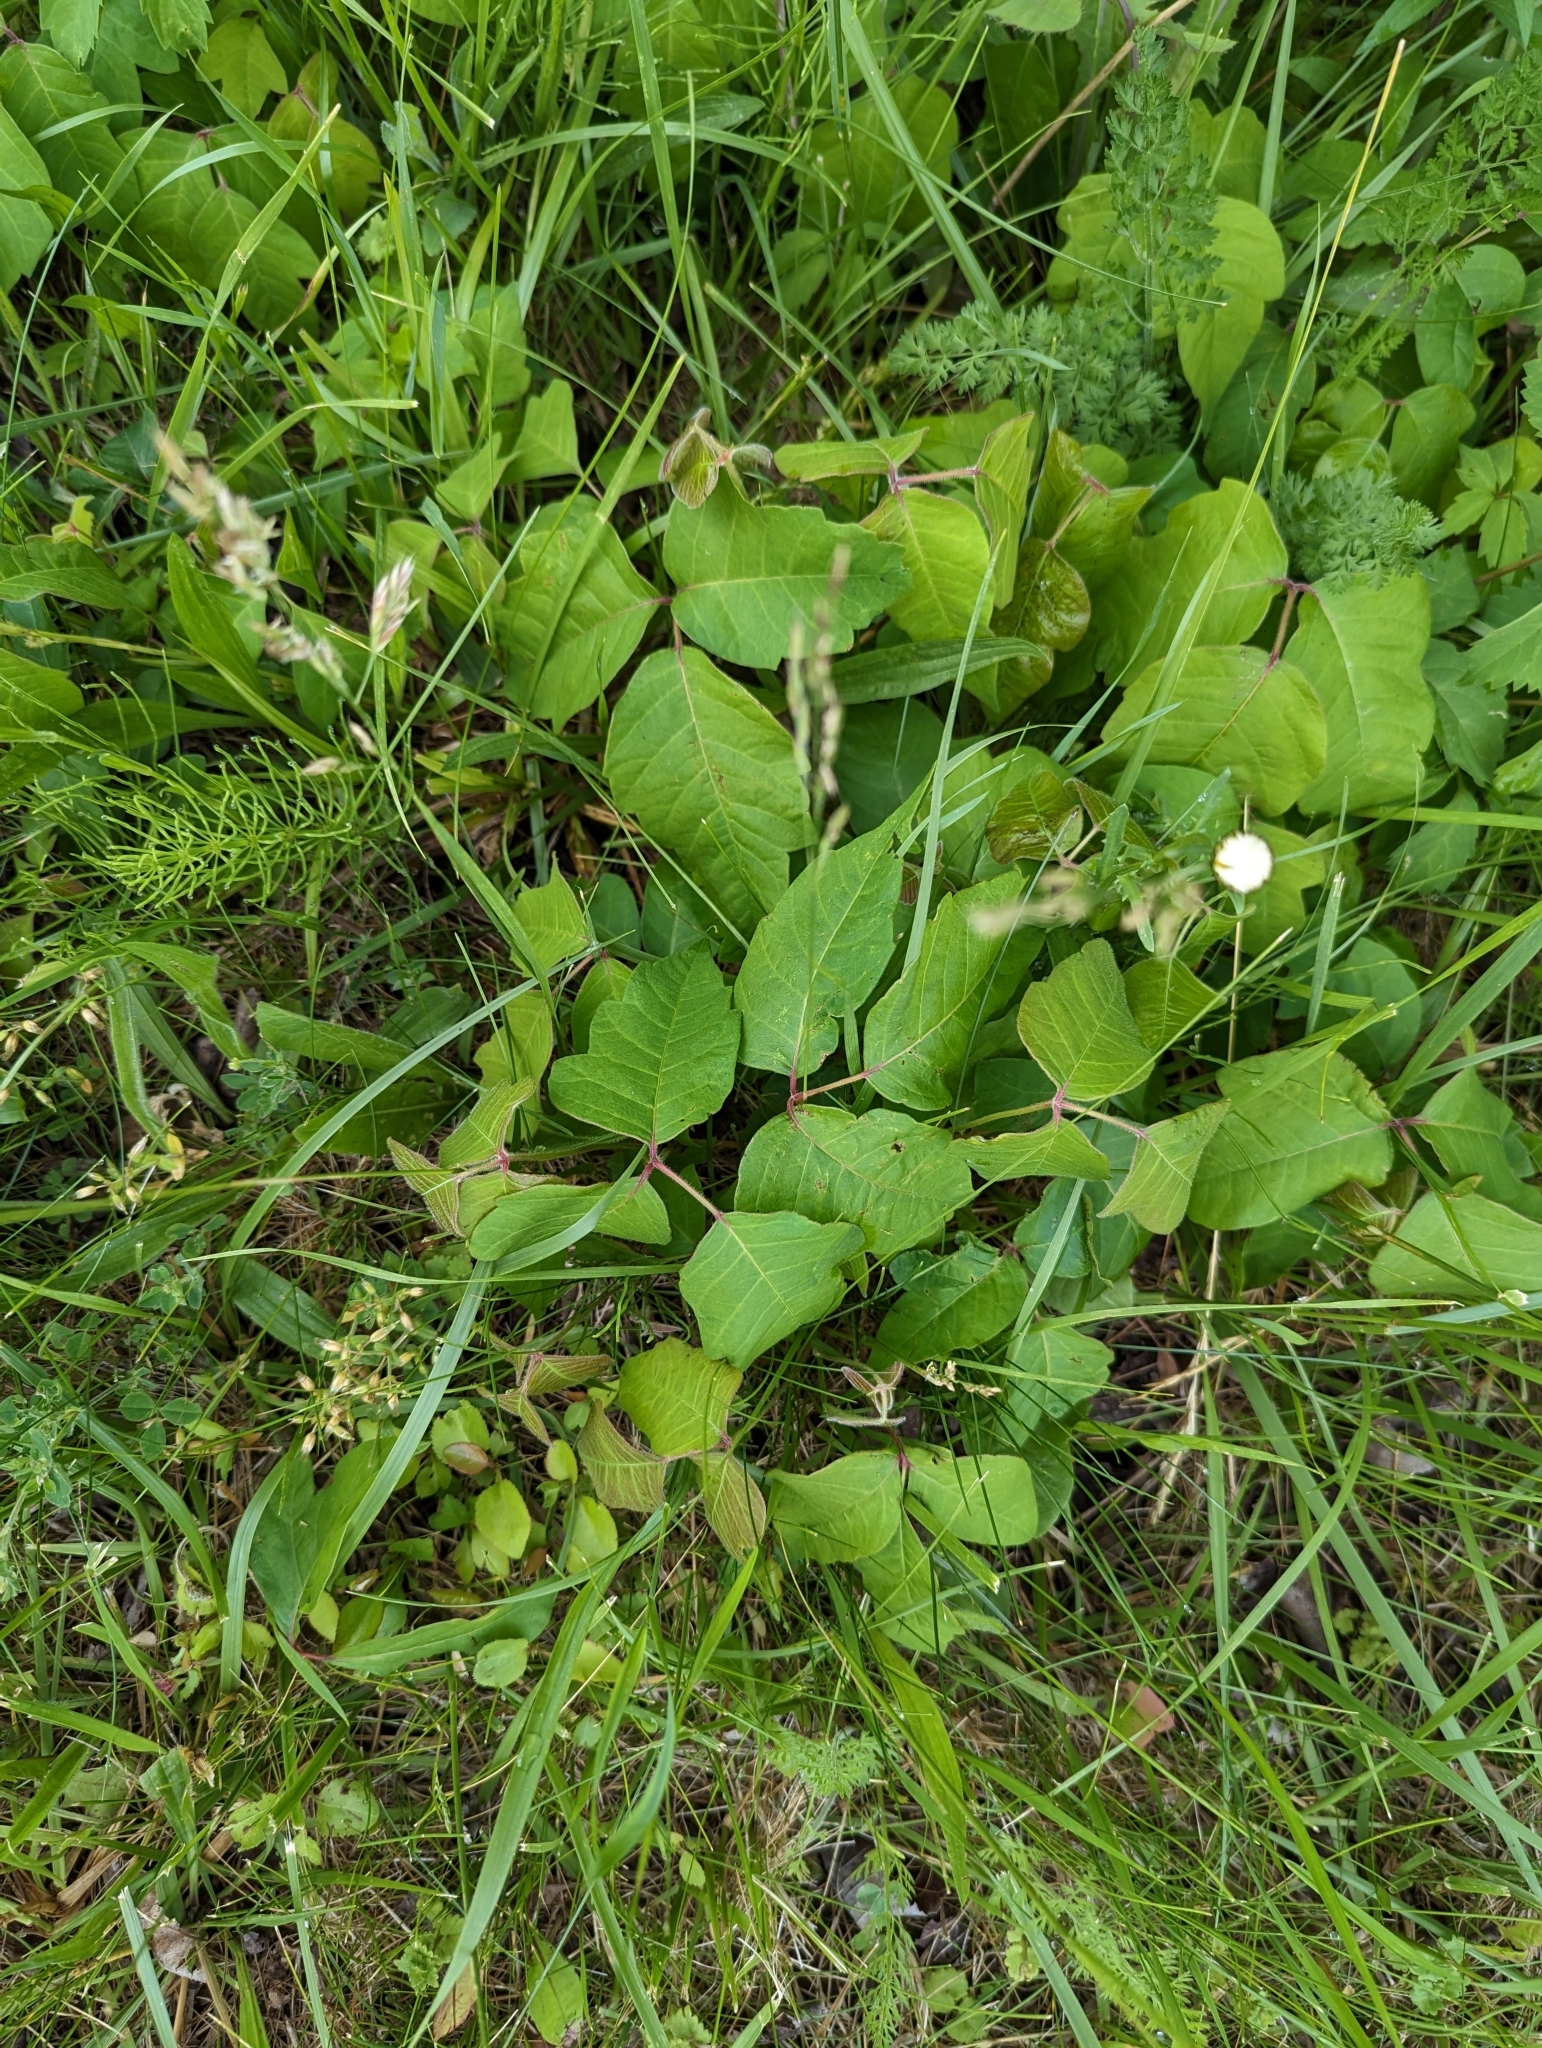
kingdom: Plantae
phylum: Tracheophyta
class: Magnoliopsida
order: Sapindales
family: Anacardiaceae
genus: Toxicodendron
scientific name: Toxicodendron radicans
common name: Poison ivy
